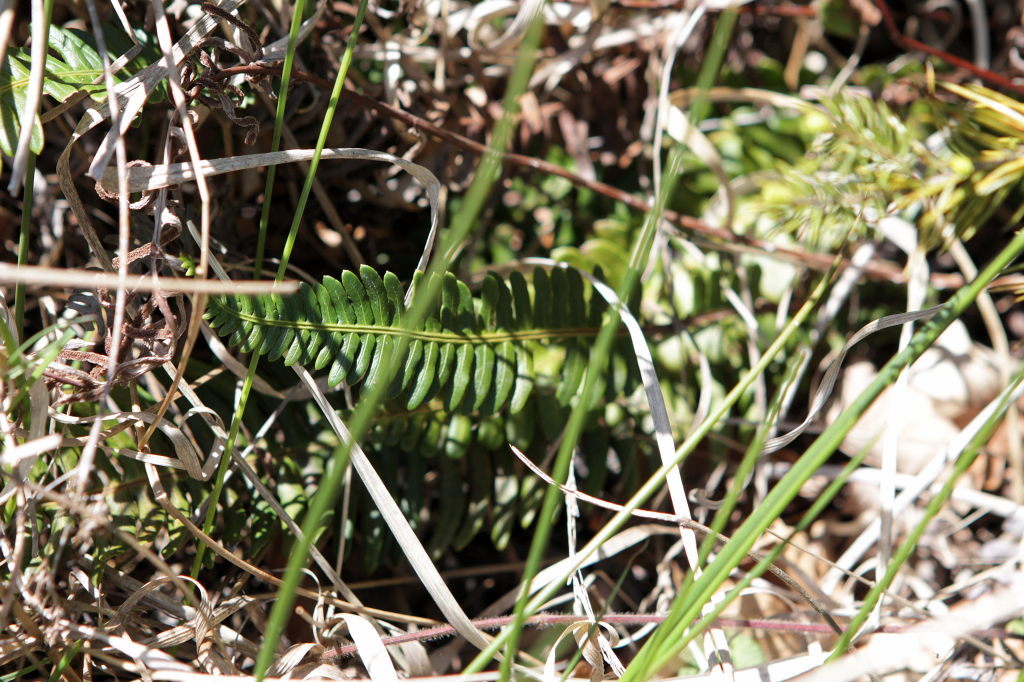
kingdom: Plantae
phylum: Tracheophyta
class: Polypodiopsida
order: Polypodiales
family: Blechnaceae
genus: Struthiopteris
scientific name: Struthiopteris spicant
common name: Deer fern
